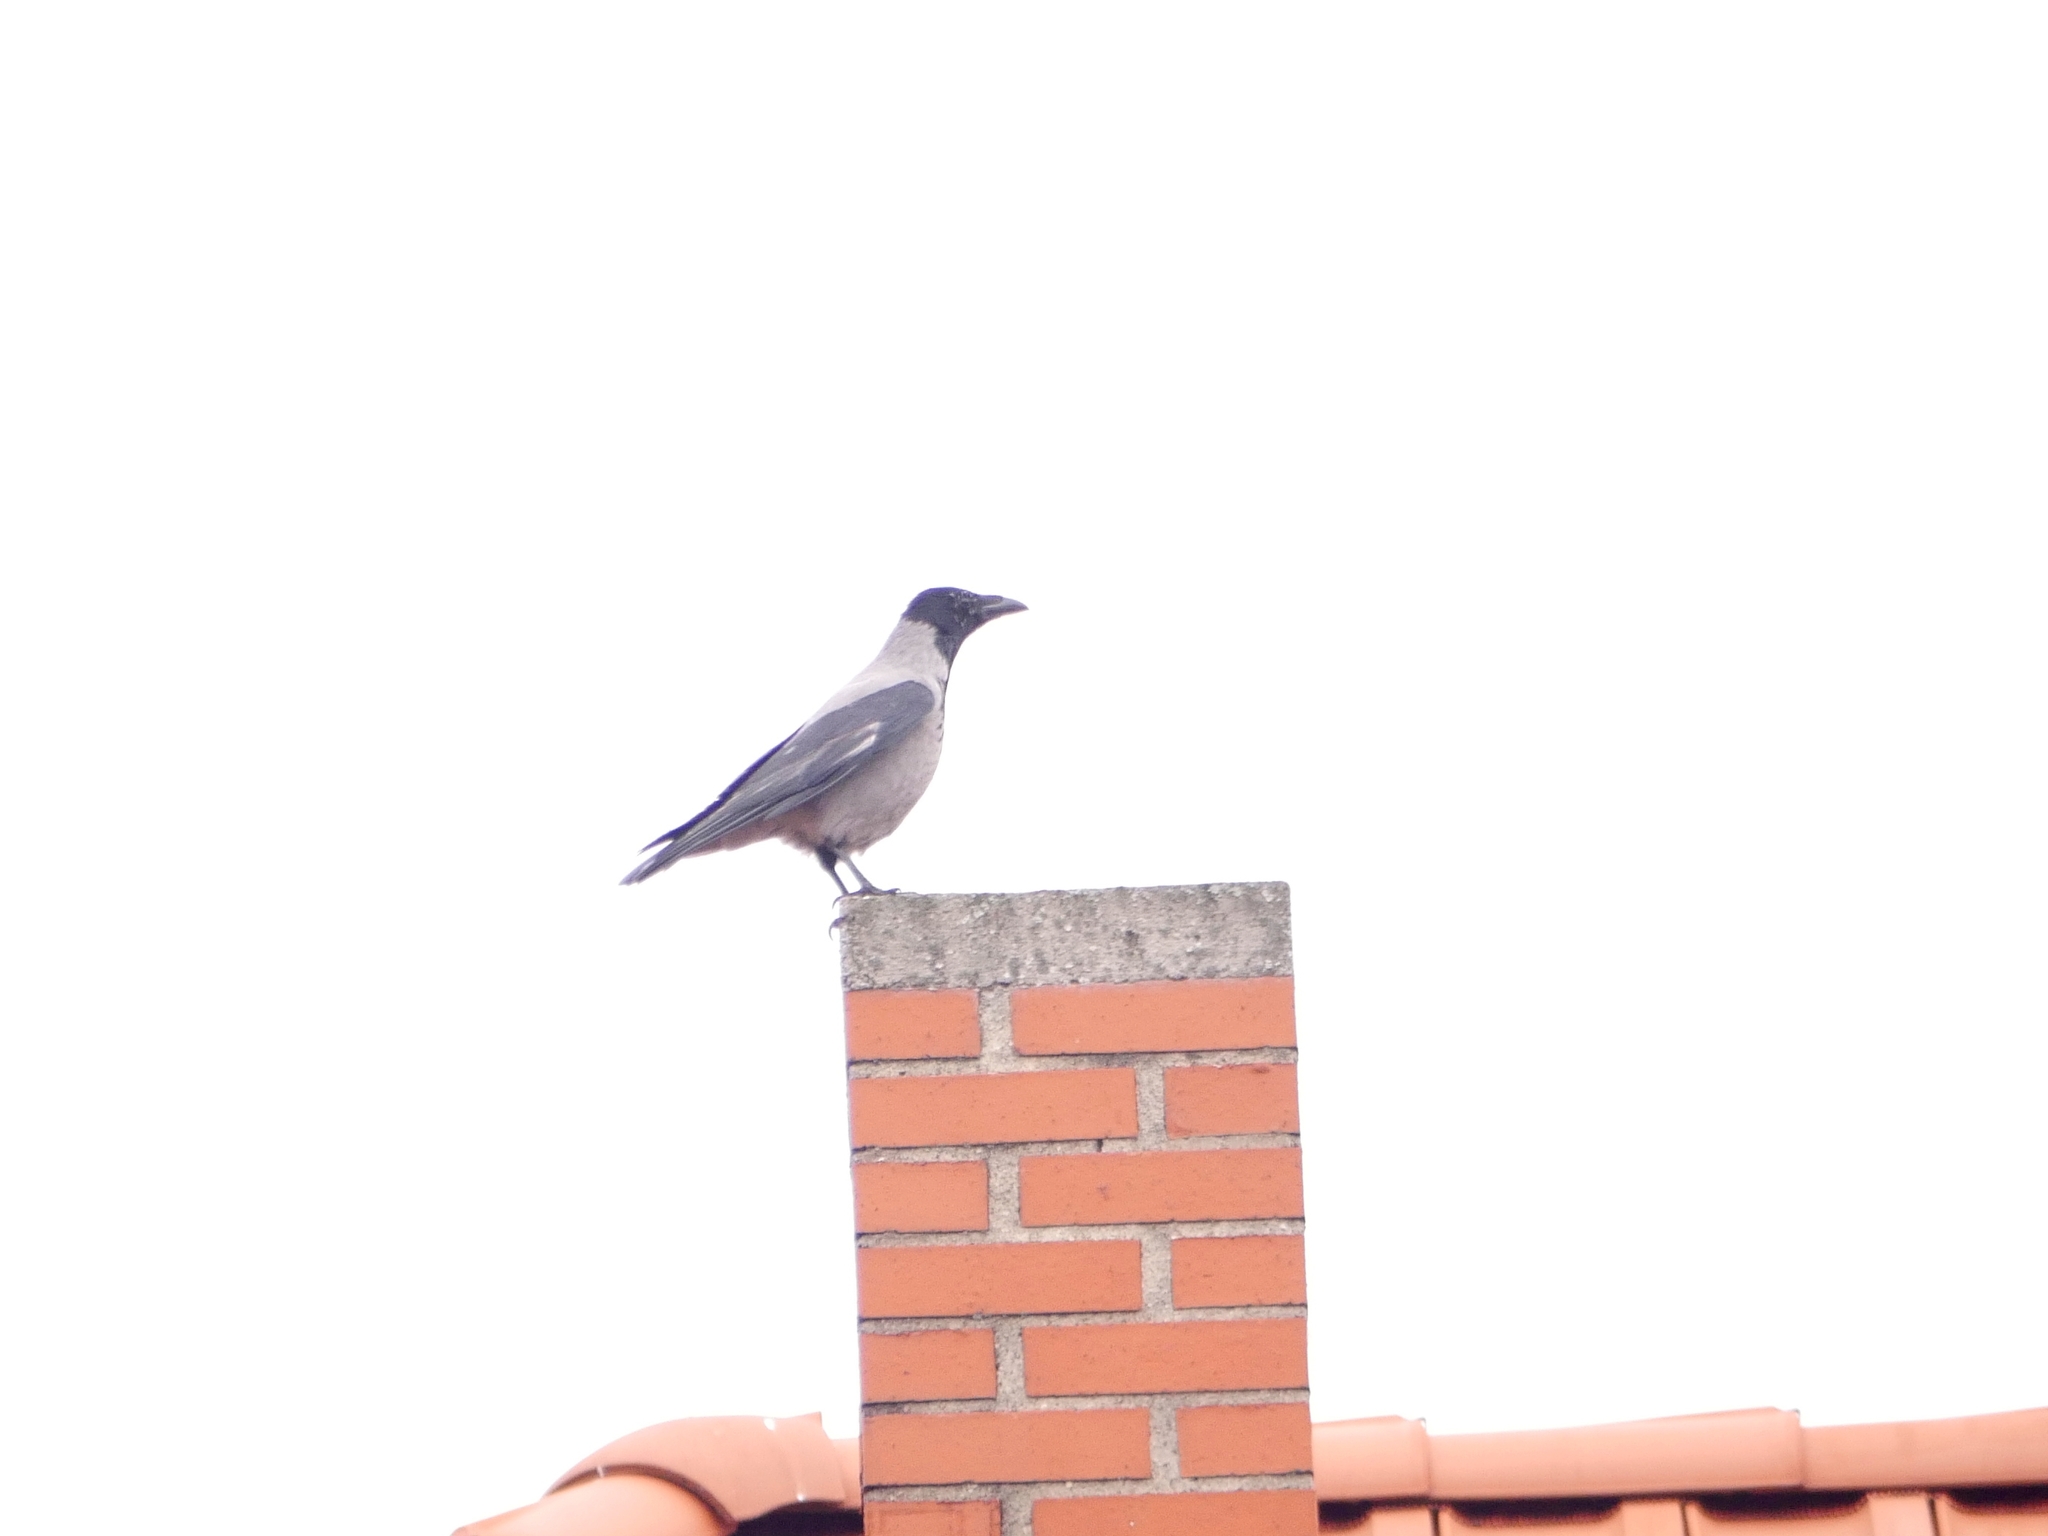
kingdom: Animalia
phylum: Chordata
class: Aves
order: Passeriformes
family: Corvidae
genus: Corvus
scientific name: Corvus cornix
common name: Hooded crow
